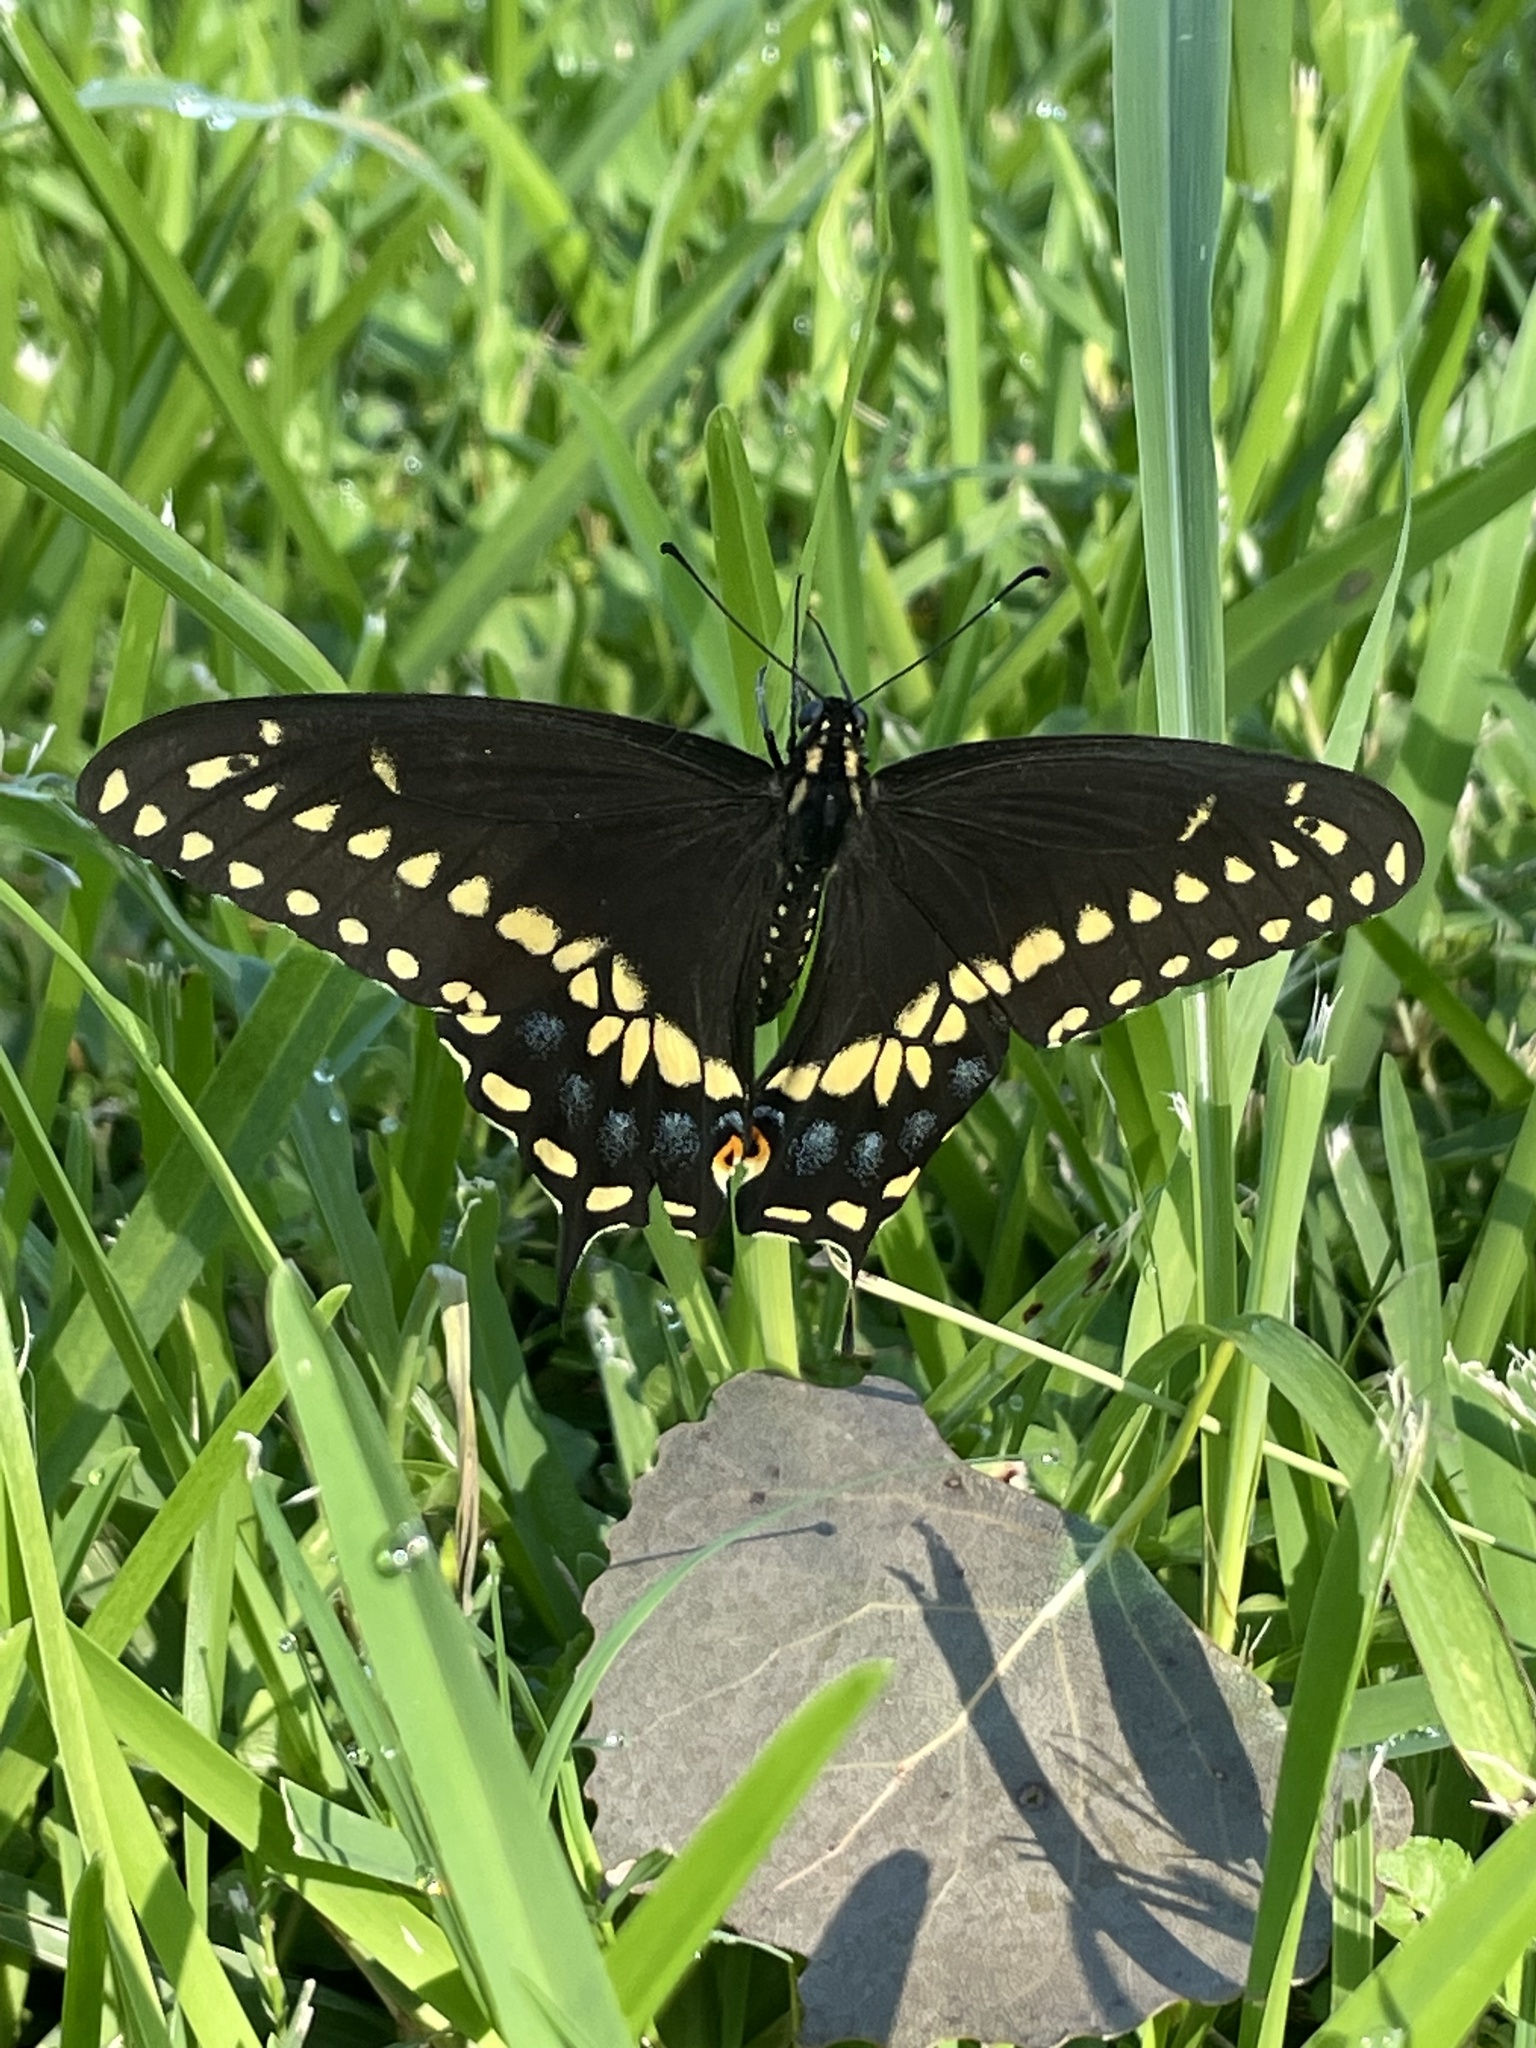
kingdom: Animalia
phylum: Arthropoda
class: Insecta
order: Lepidoptera
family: Papilionidae
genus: Papilio
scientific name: Papilio polyxenes
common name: Black swallowtail
